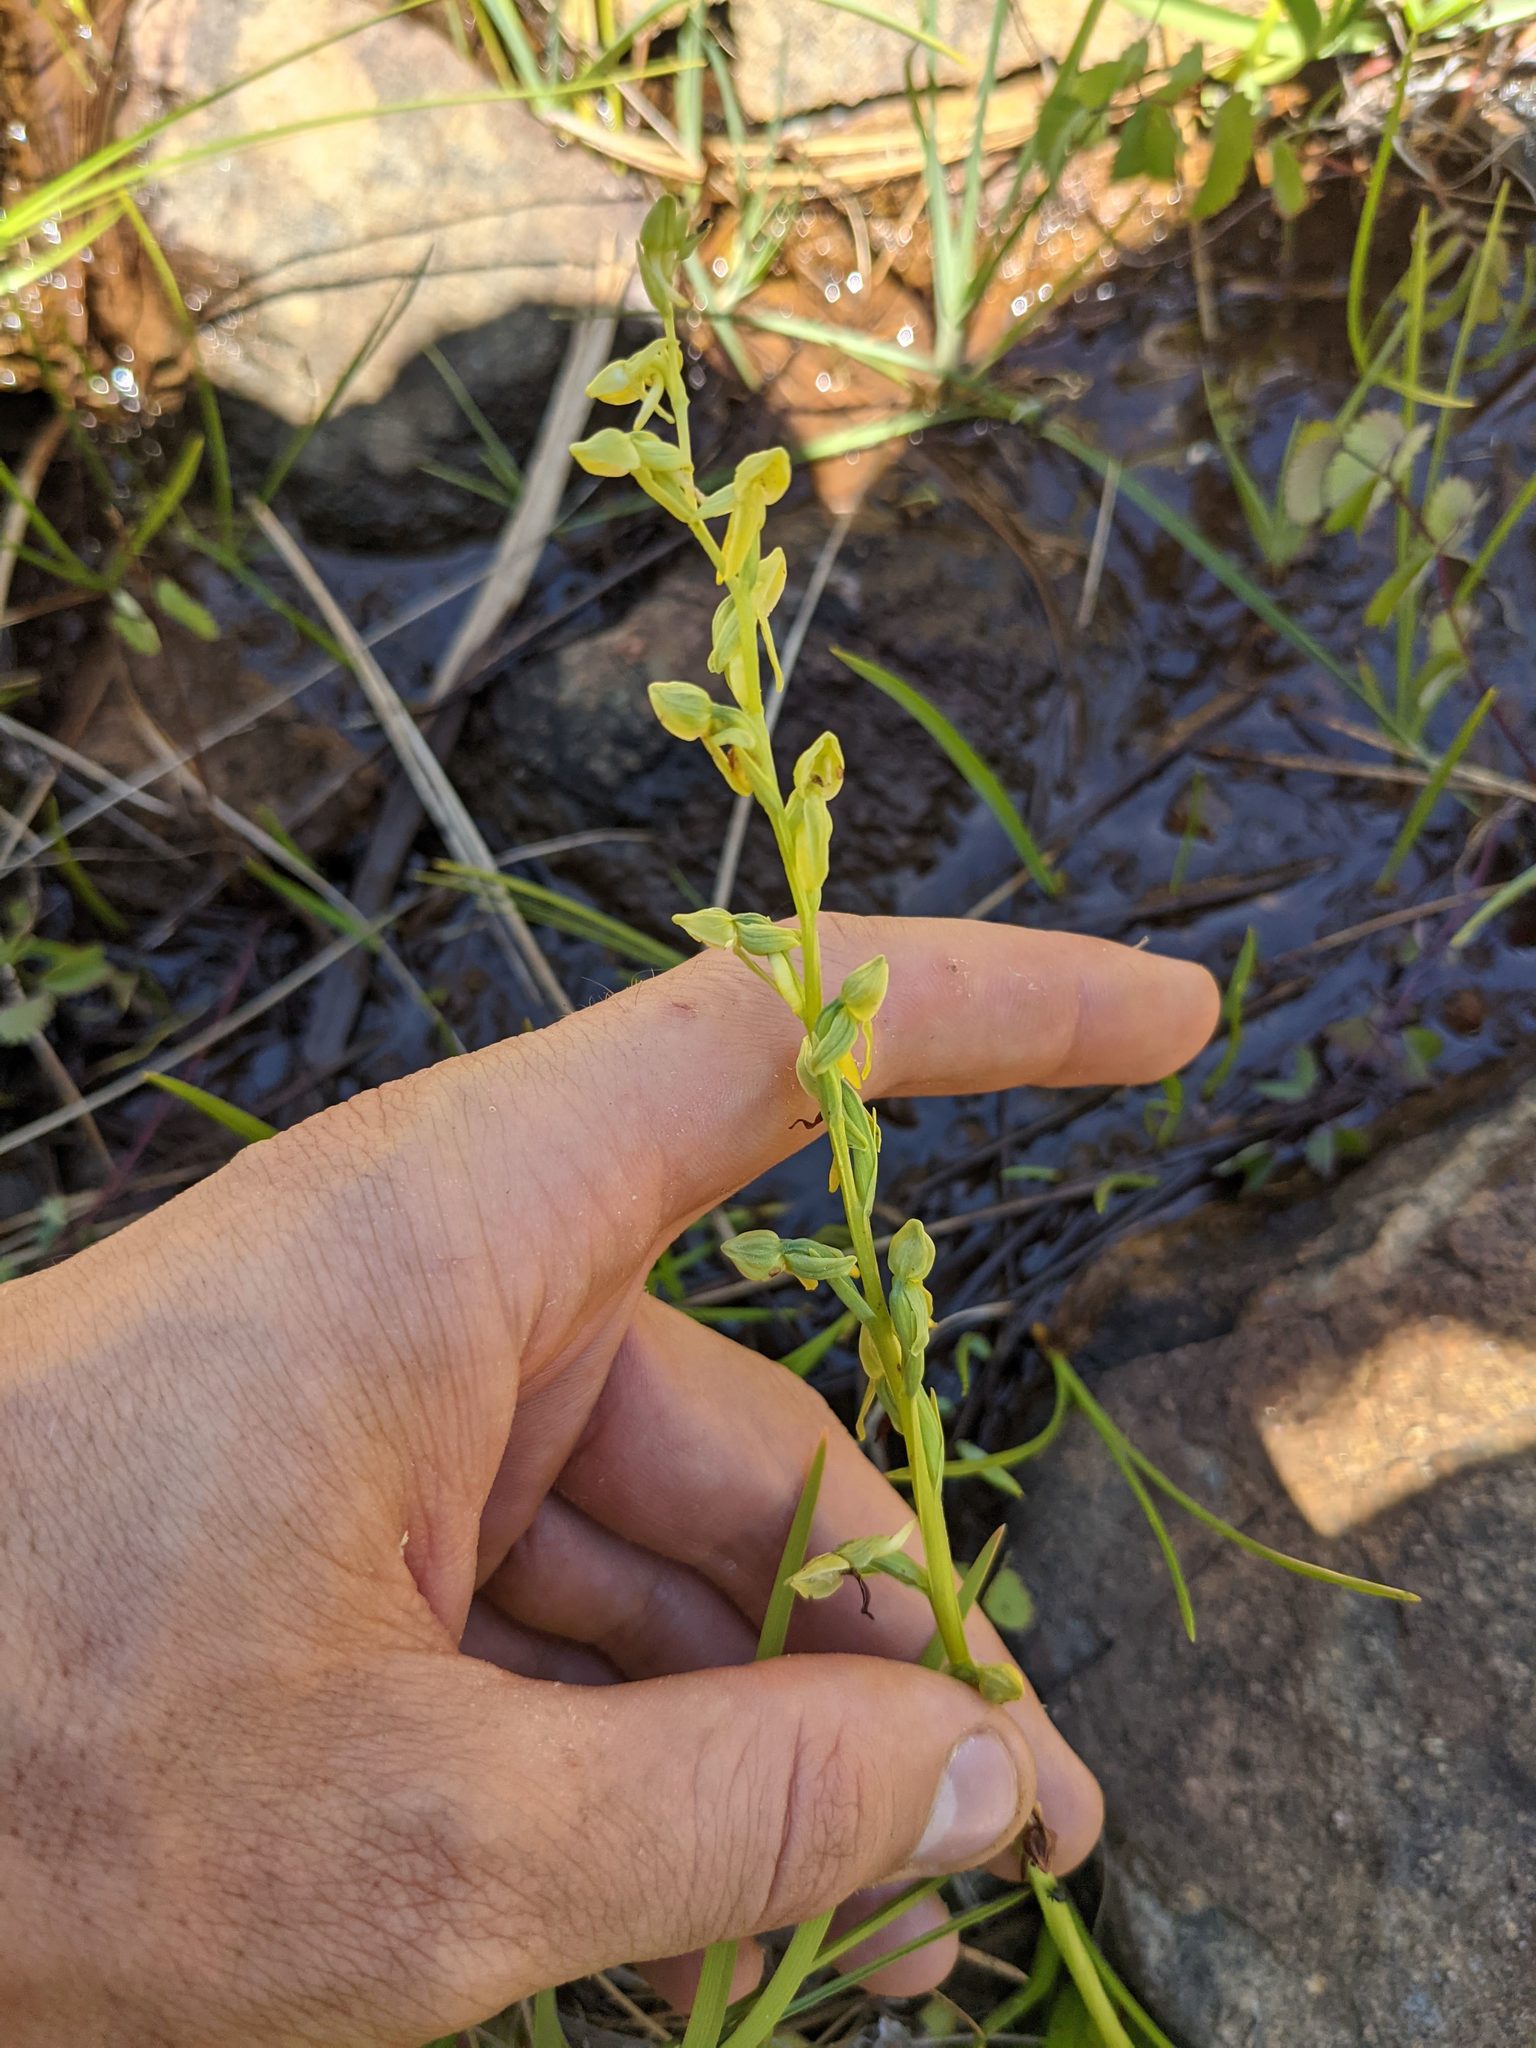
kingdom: Plantae
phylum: Tracheophyta
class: Liliopsida
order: Asparagales
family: Orchidaceae
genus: Platanthera
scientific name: Platanthera sparsiflora
